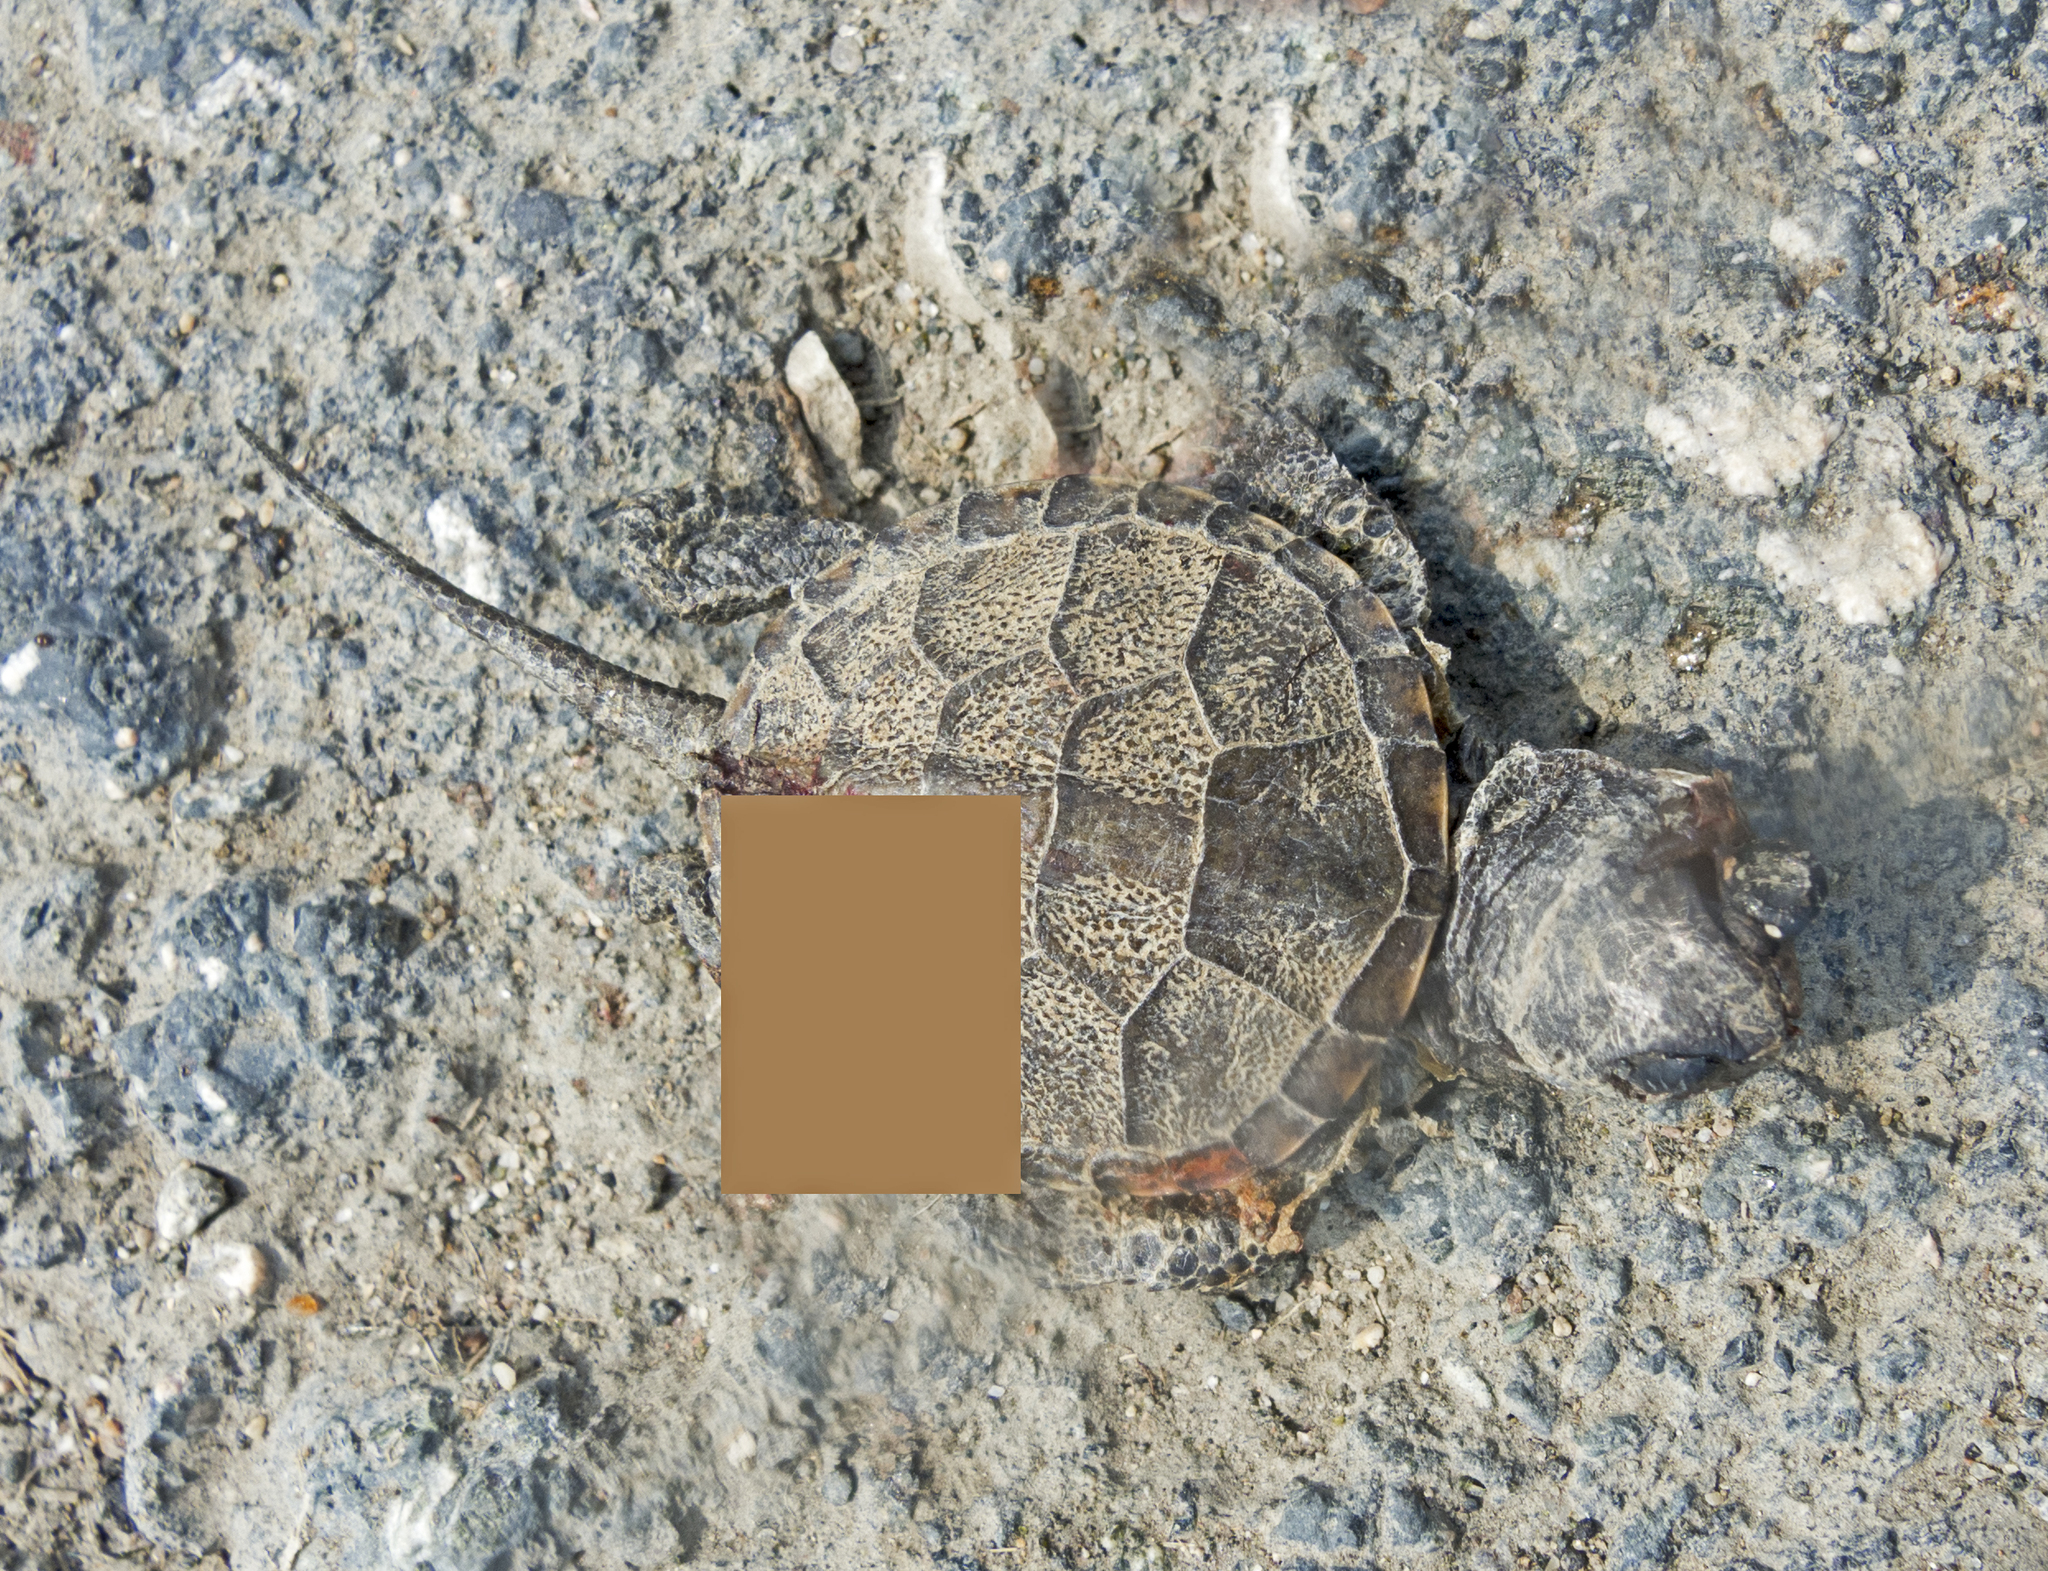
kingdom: Animalia
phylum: Chordata
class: Testudines
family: Emydidae
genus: Emys
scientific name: Emys orbicularis
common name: European pond turtle
